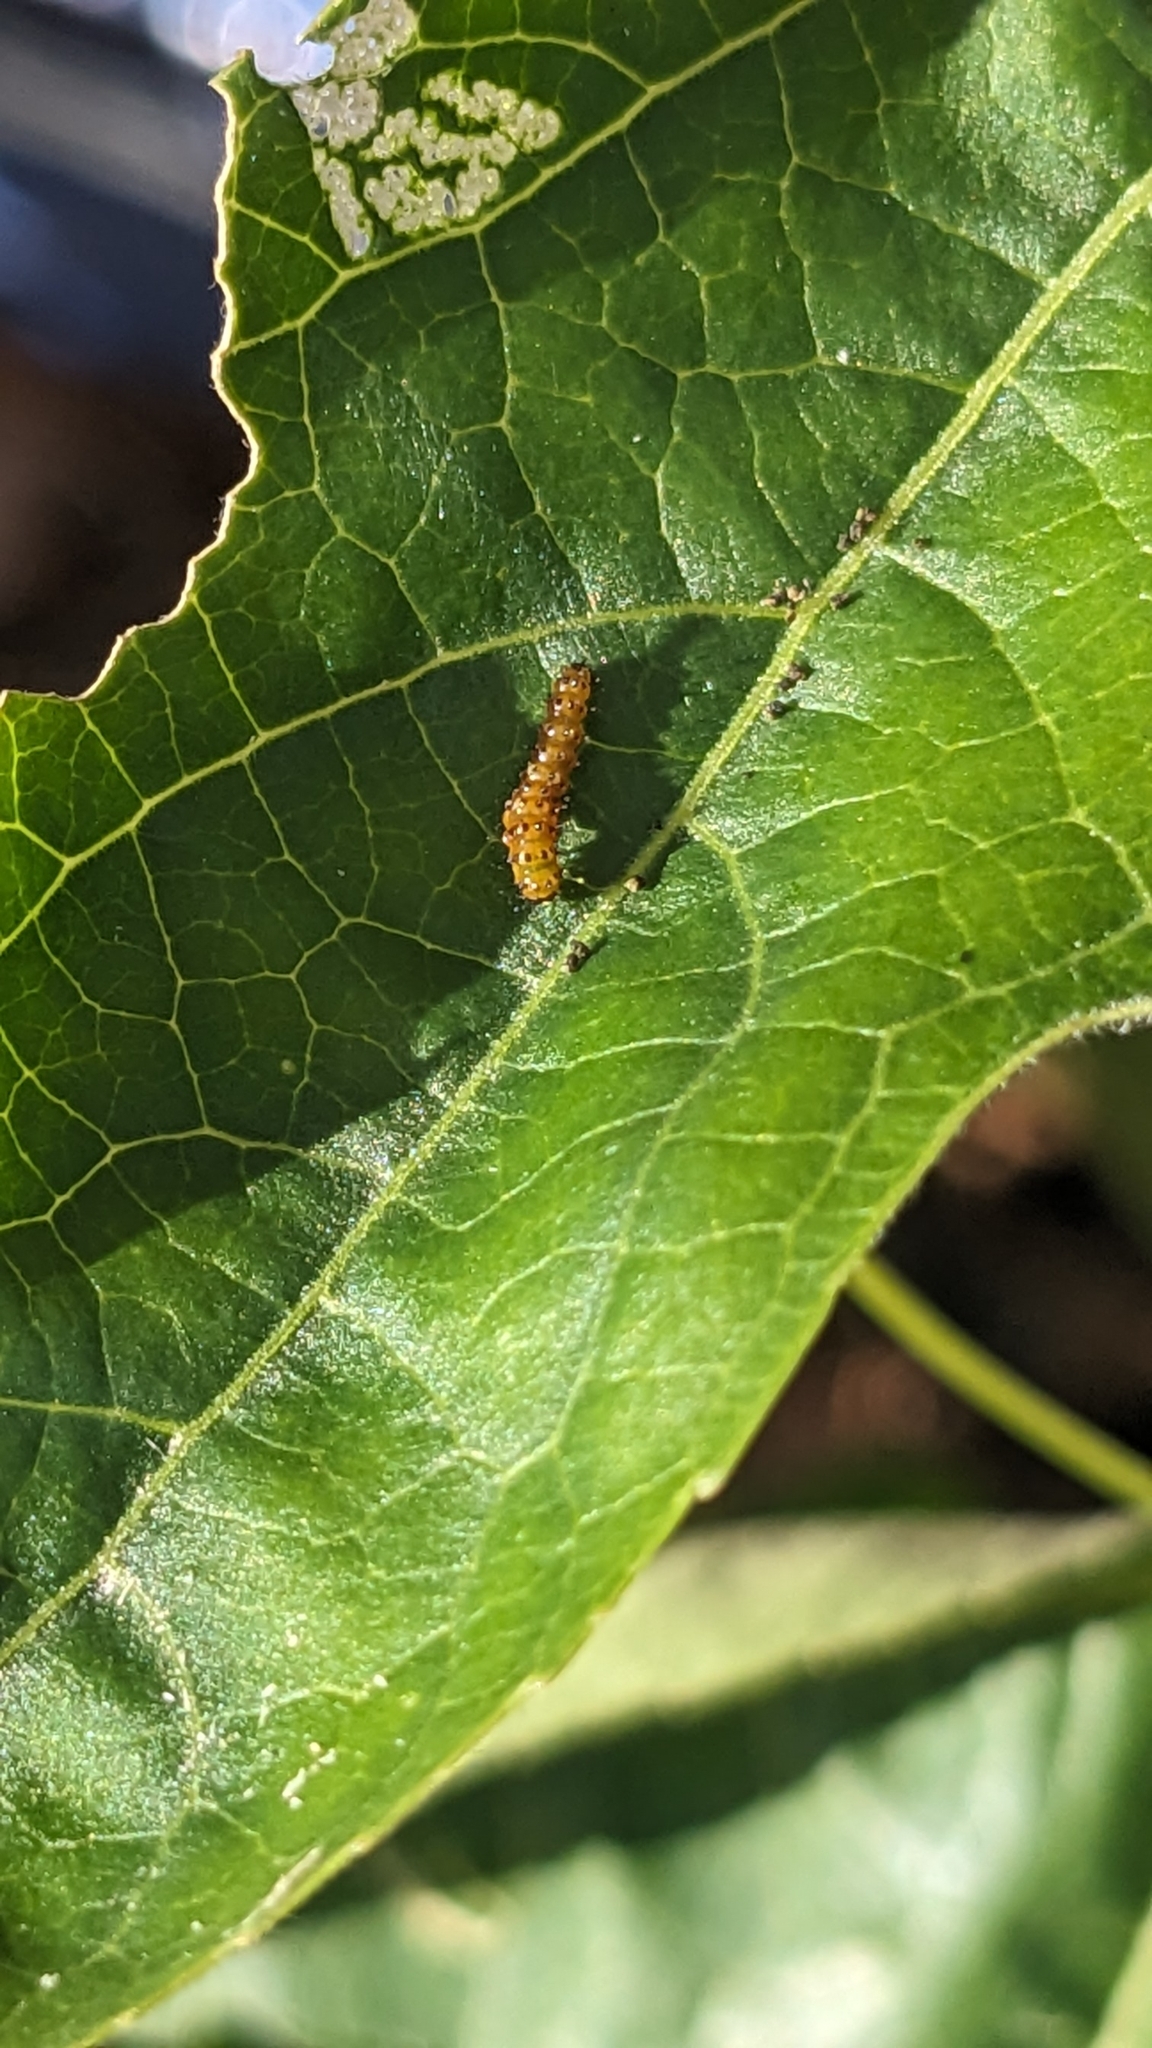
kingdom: Animalia
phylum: Arthropoda
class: Insecta
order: Lepidoptera
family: Nymphalidae
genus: Dione
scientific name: Dione vanillae
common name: Gulf fritillary
